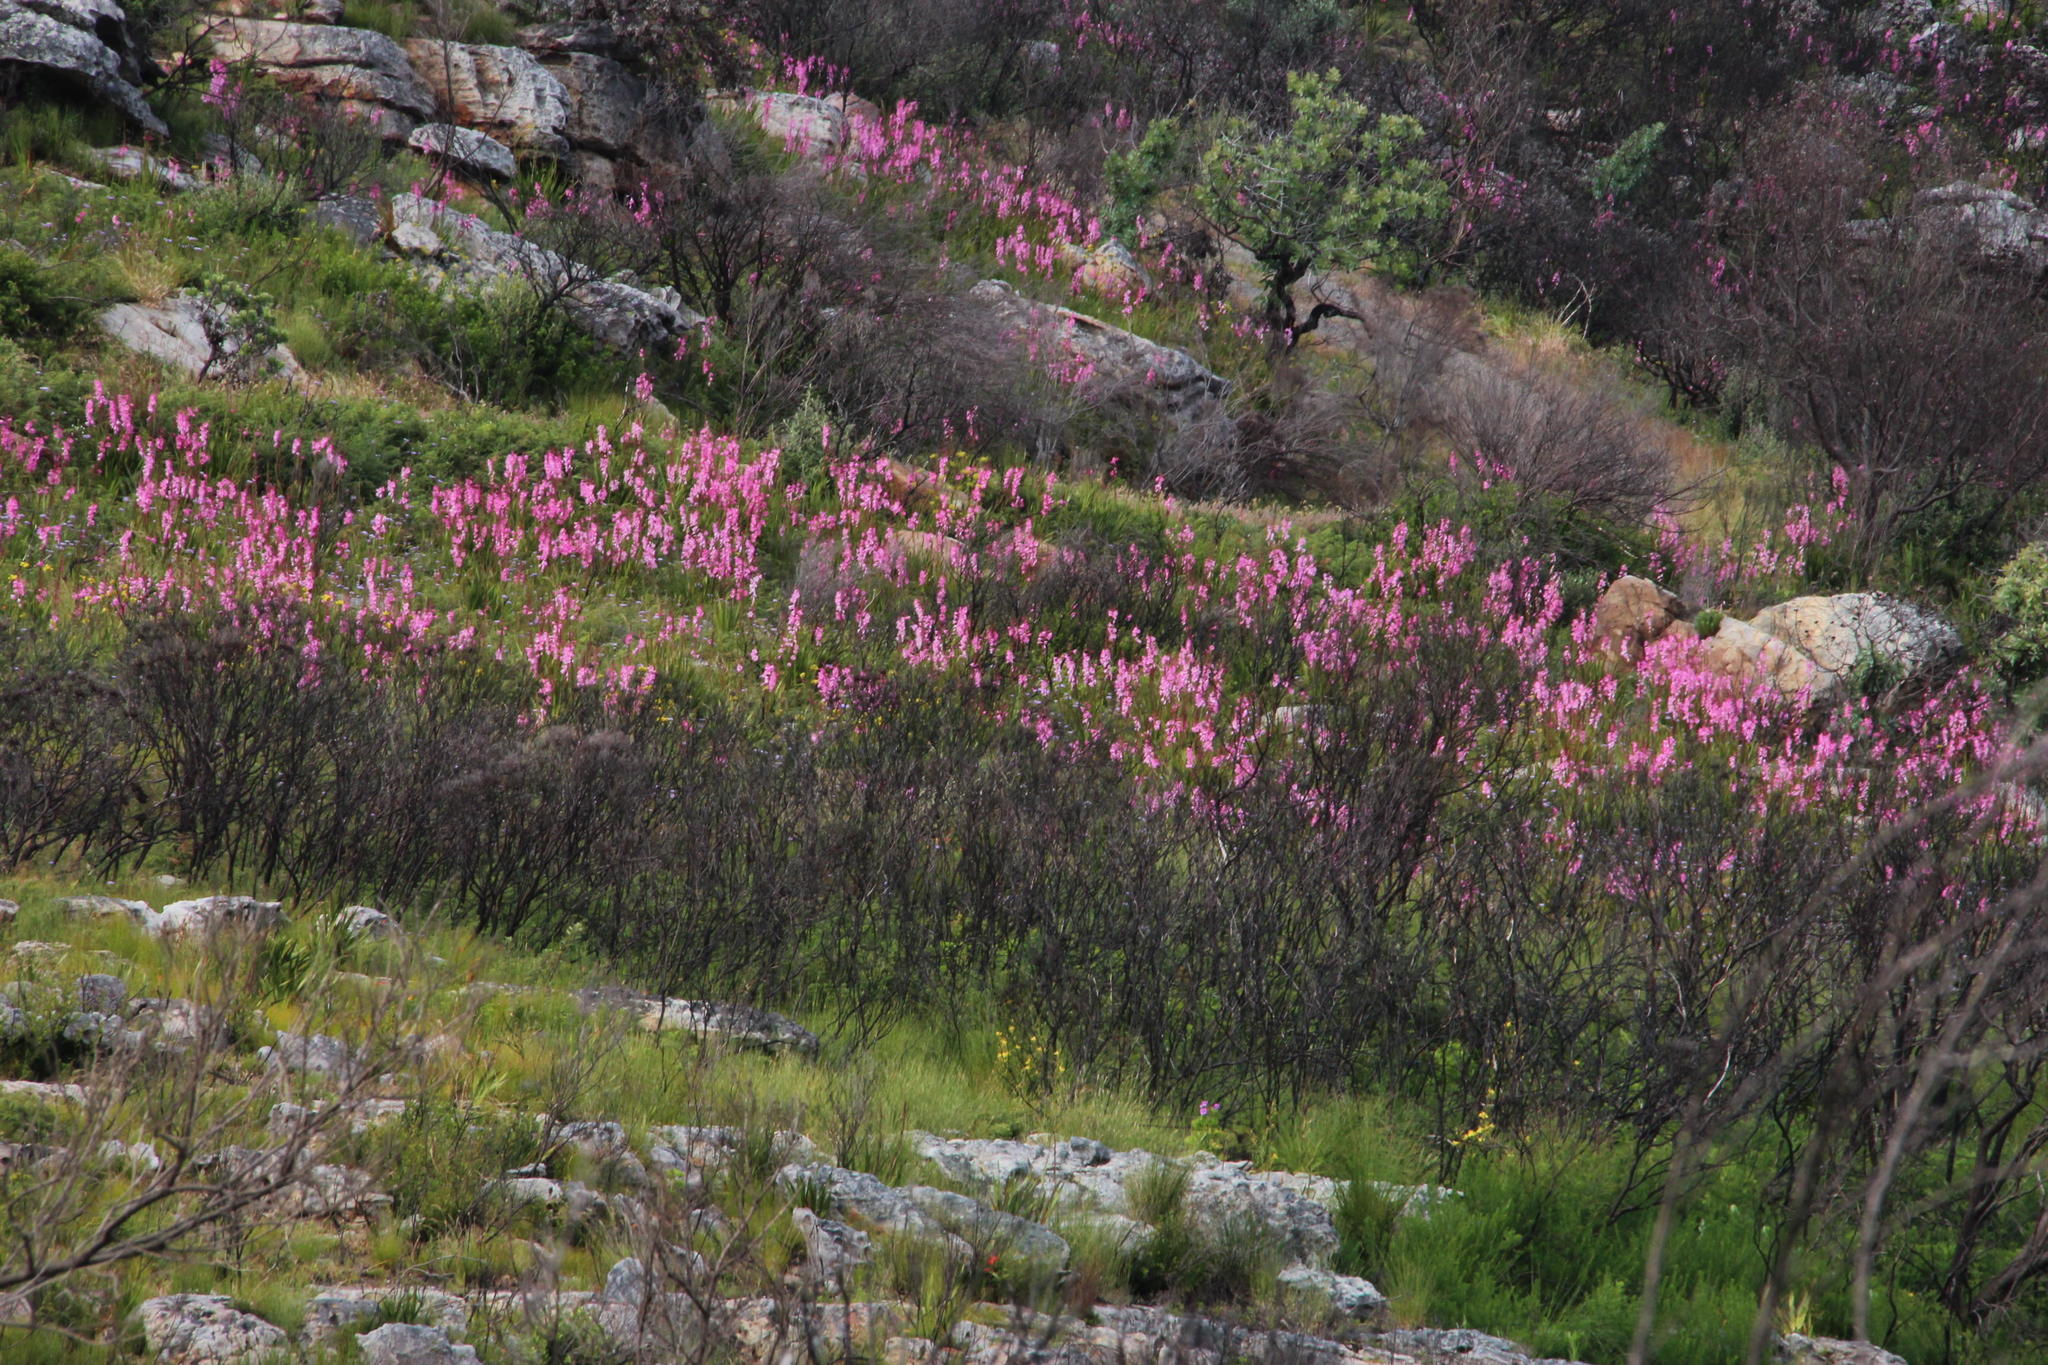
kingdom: Plantae
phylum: Tracheophyta
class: Liliopsida
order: Asparagales
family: Iridaceae
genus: Watsonia
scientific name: Watsonia borbonica
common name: Bugle-lily
